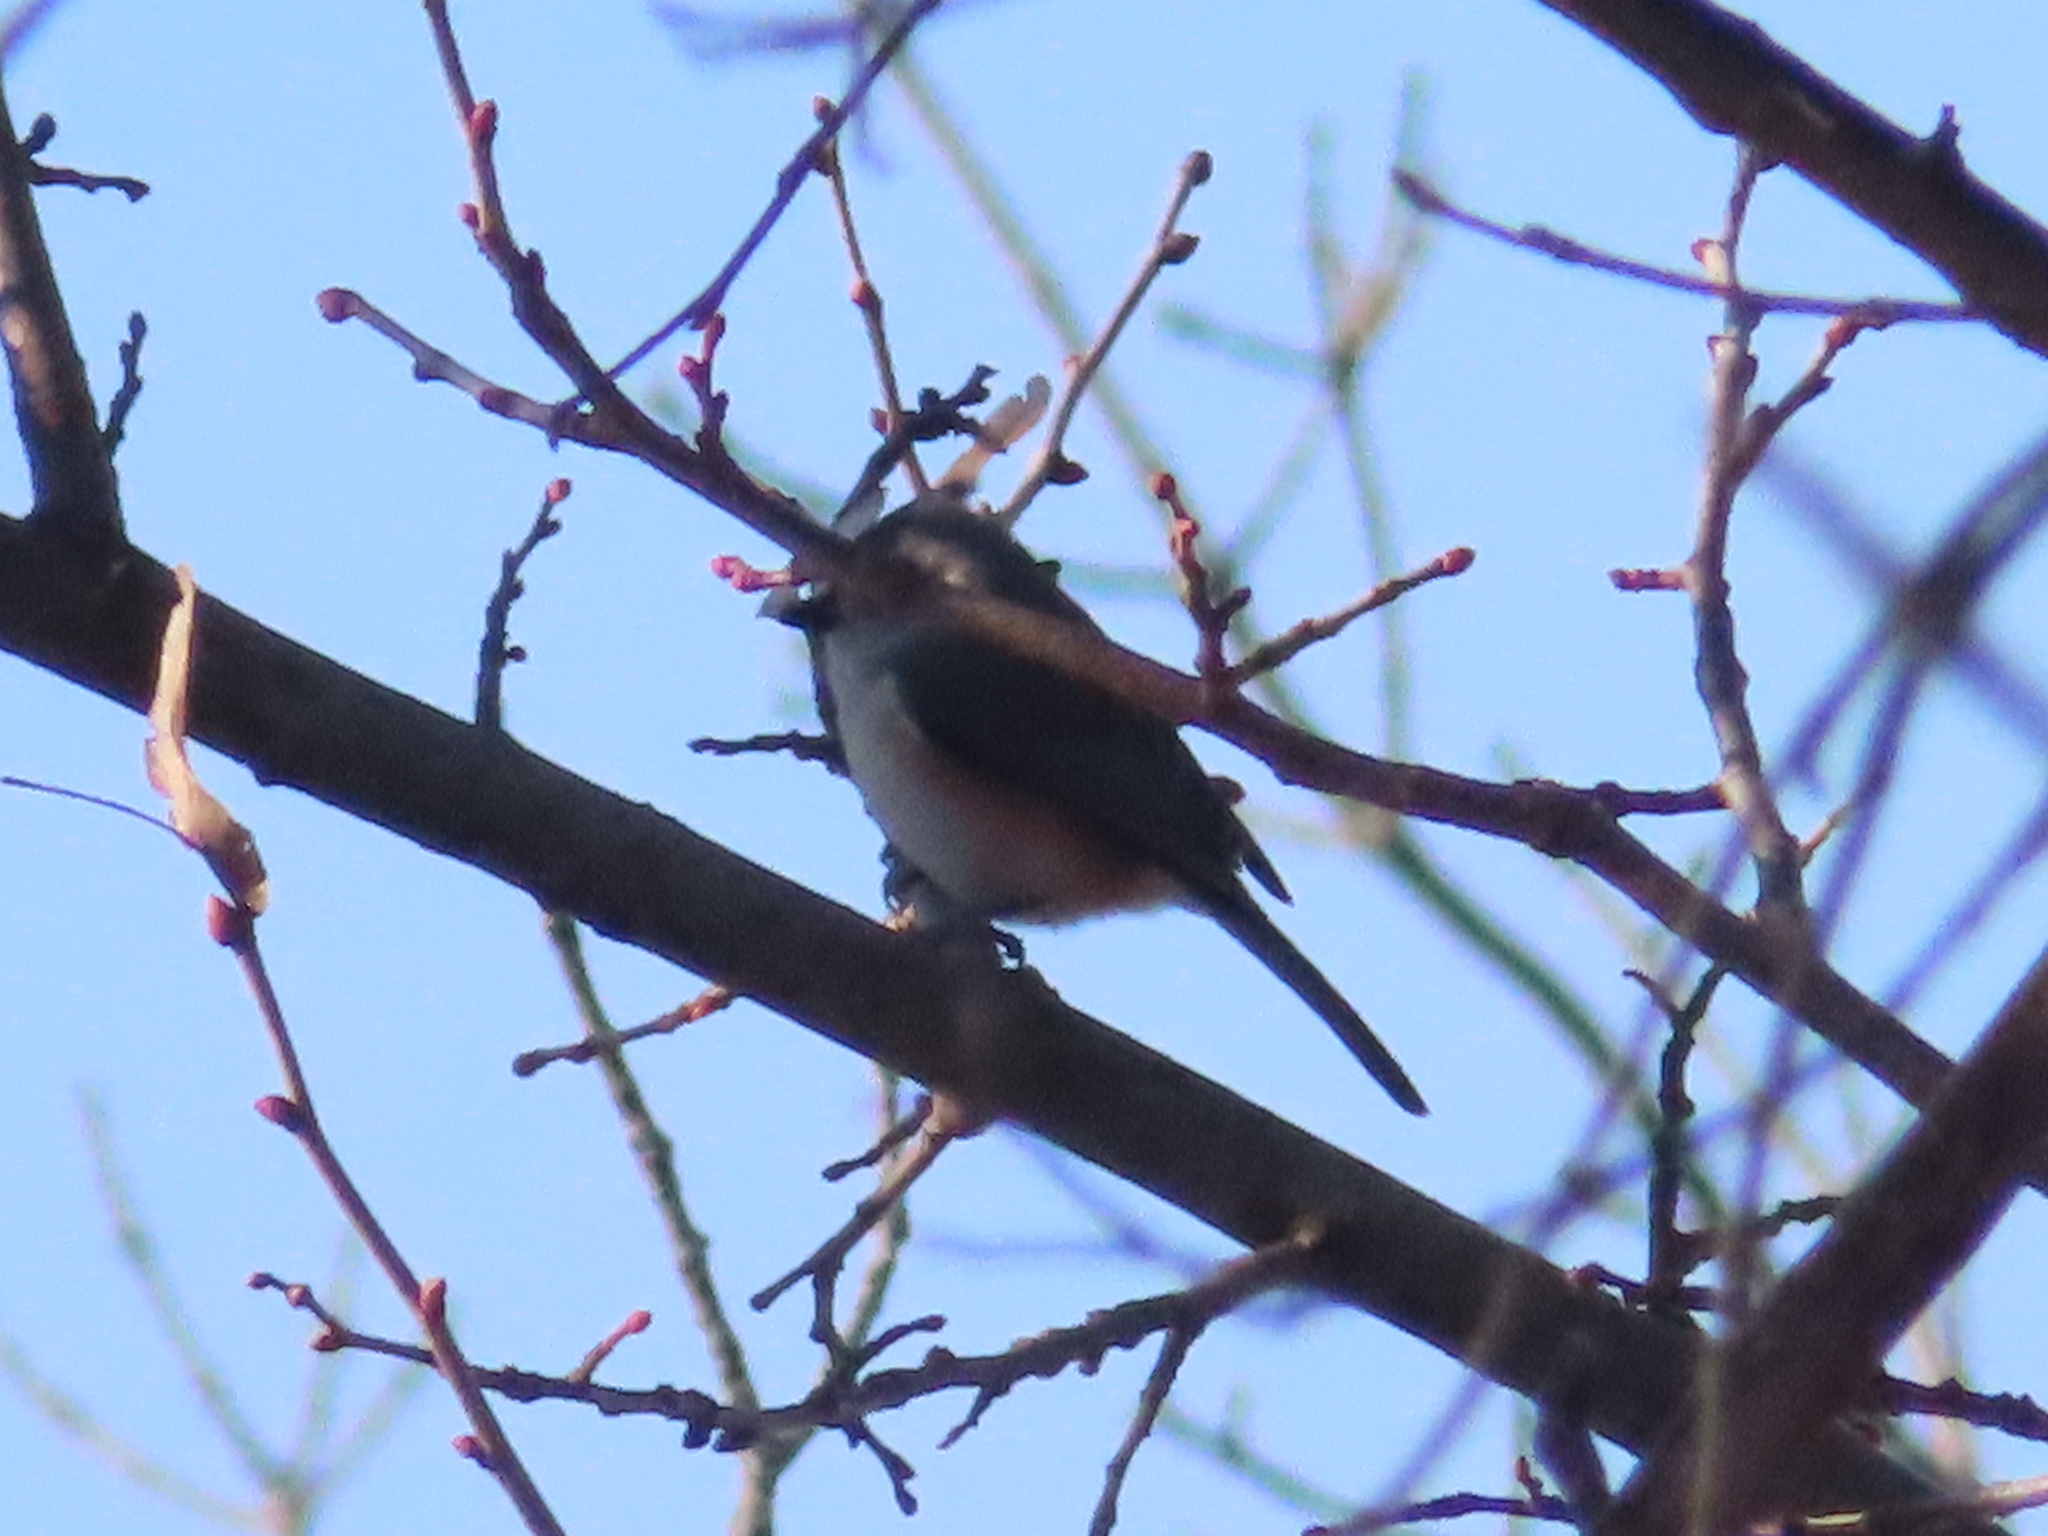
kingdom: Animalia
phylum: Chordata
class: Aves
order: Passeriformes
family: Paridae
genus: Baeolophus
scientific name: Baeolophus bicolor
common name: Tufted titmouse
